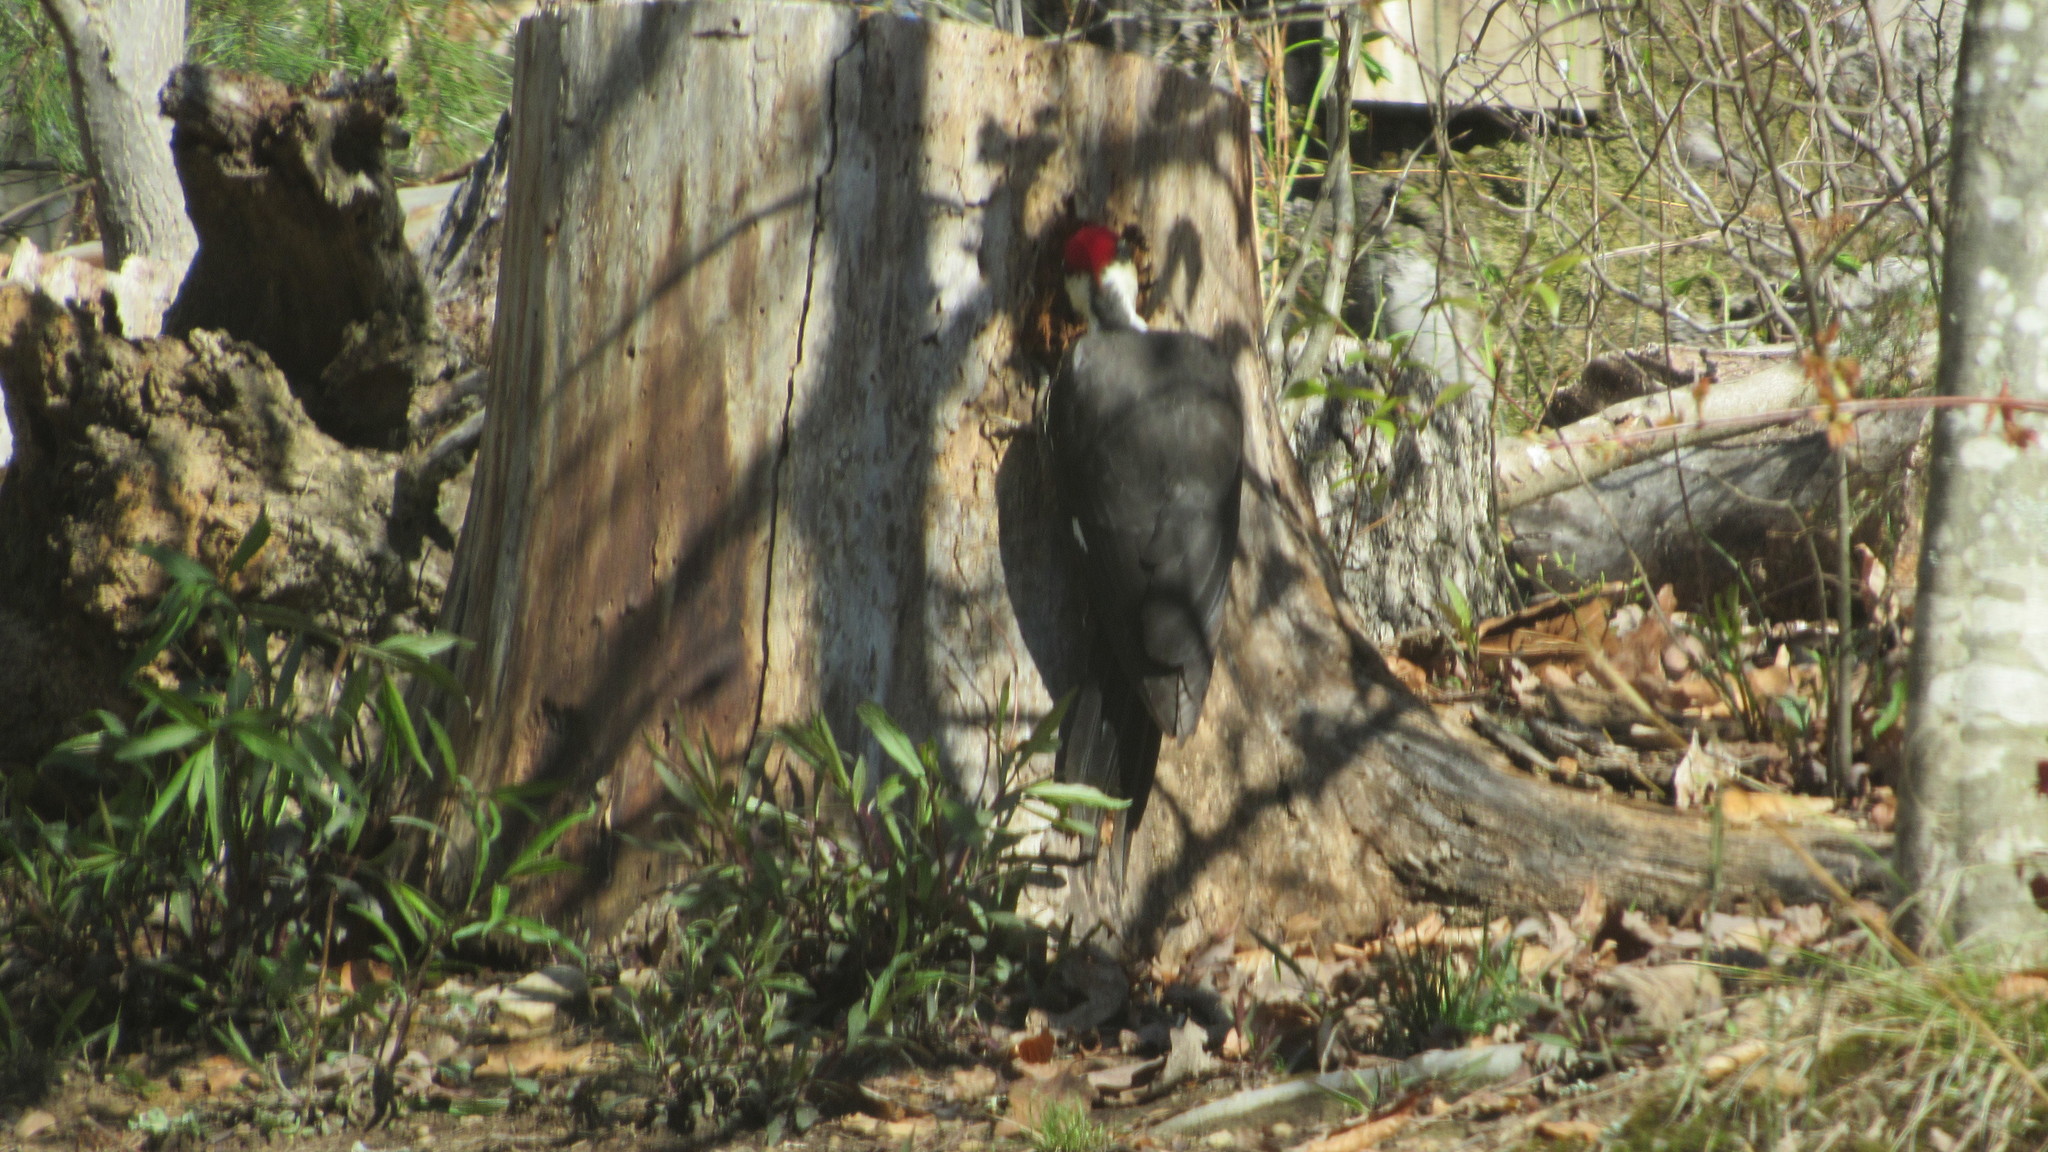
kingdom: Animalia
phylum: Chordata
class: Aves
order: Piciformes
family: Picidae
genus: Dryocopus
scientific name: Dryocopus pileatus
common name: Pileated woodpecker
